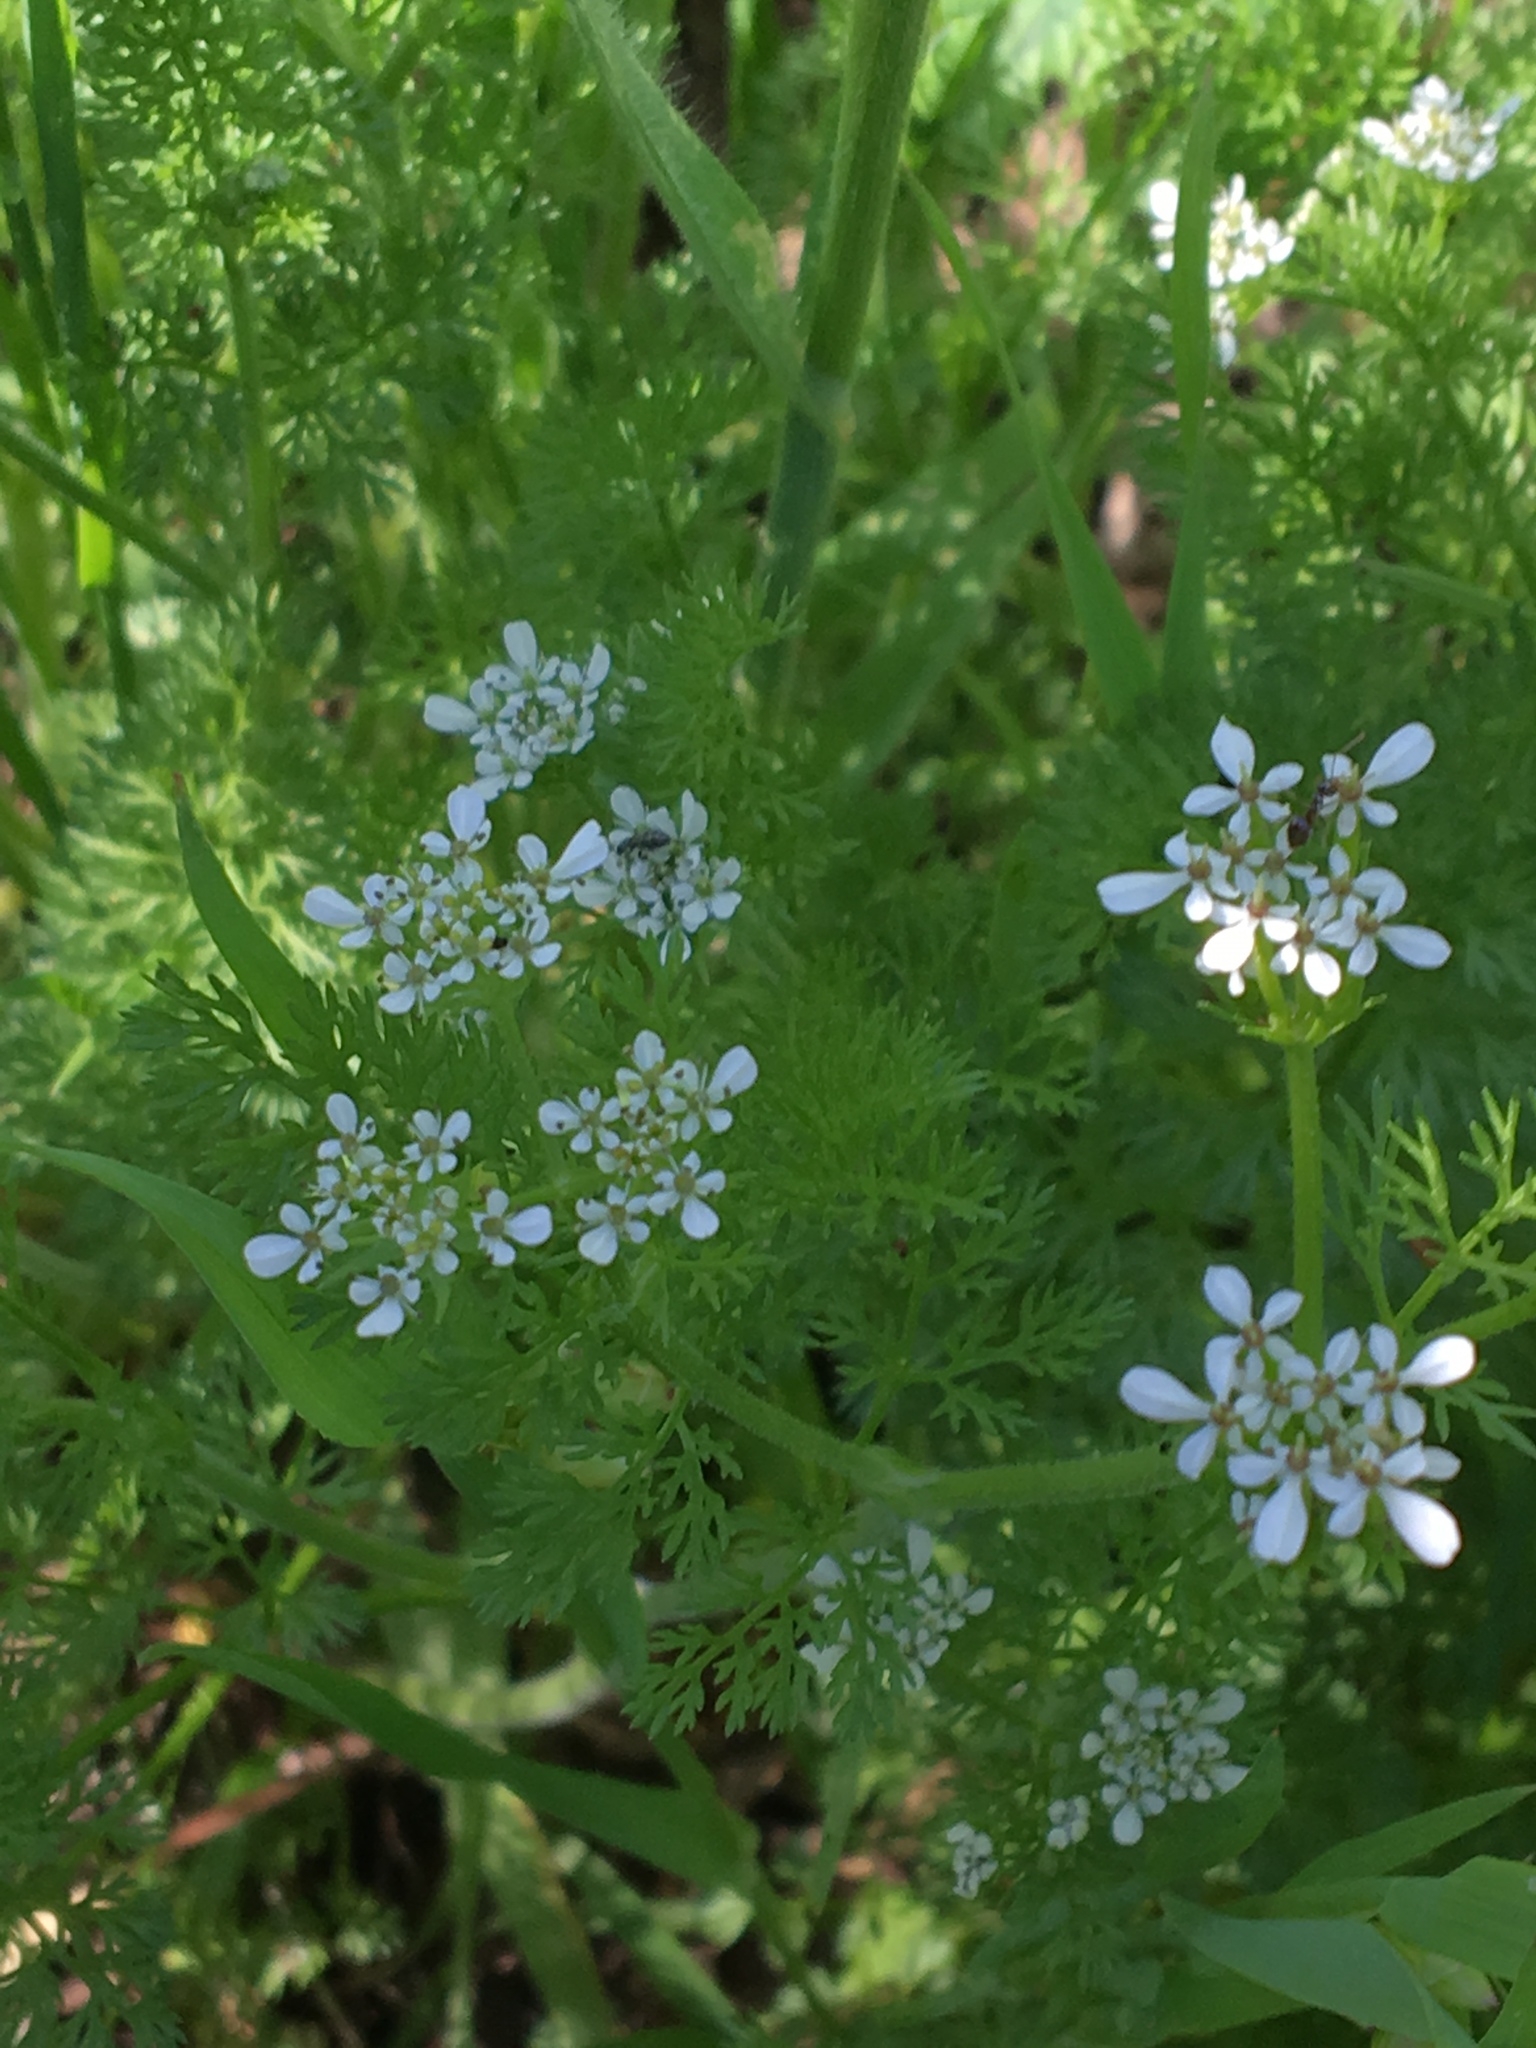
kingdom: Plantae
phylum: Tracheophyta
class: Magnoliopsida
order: Apiales
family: Apiaceae
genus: Scandix
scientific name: Scandix pecten-veneris
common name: Shepherd's-needle
